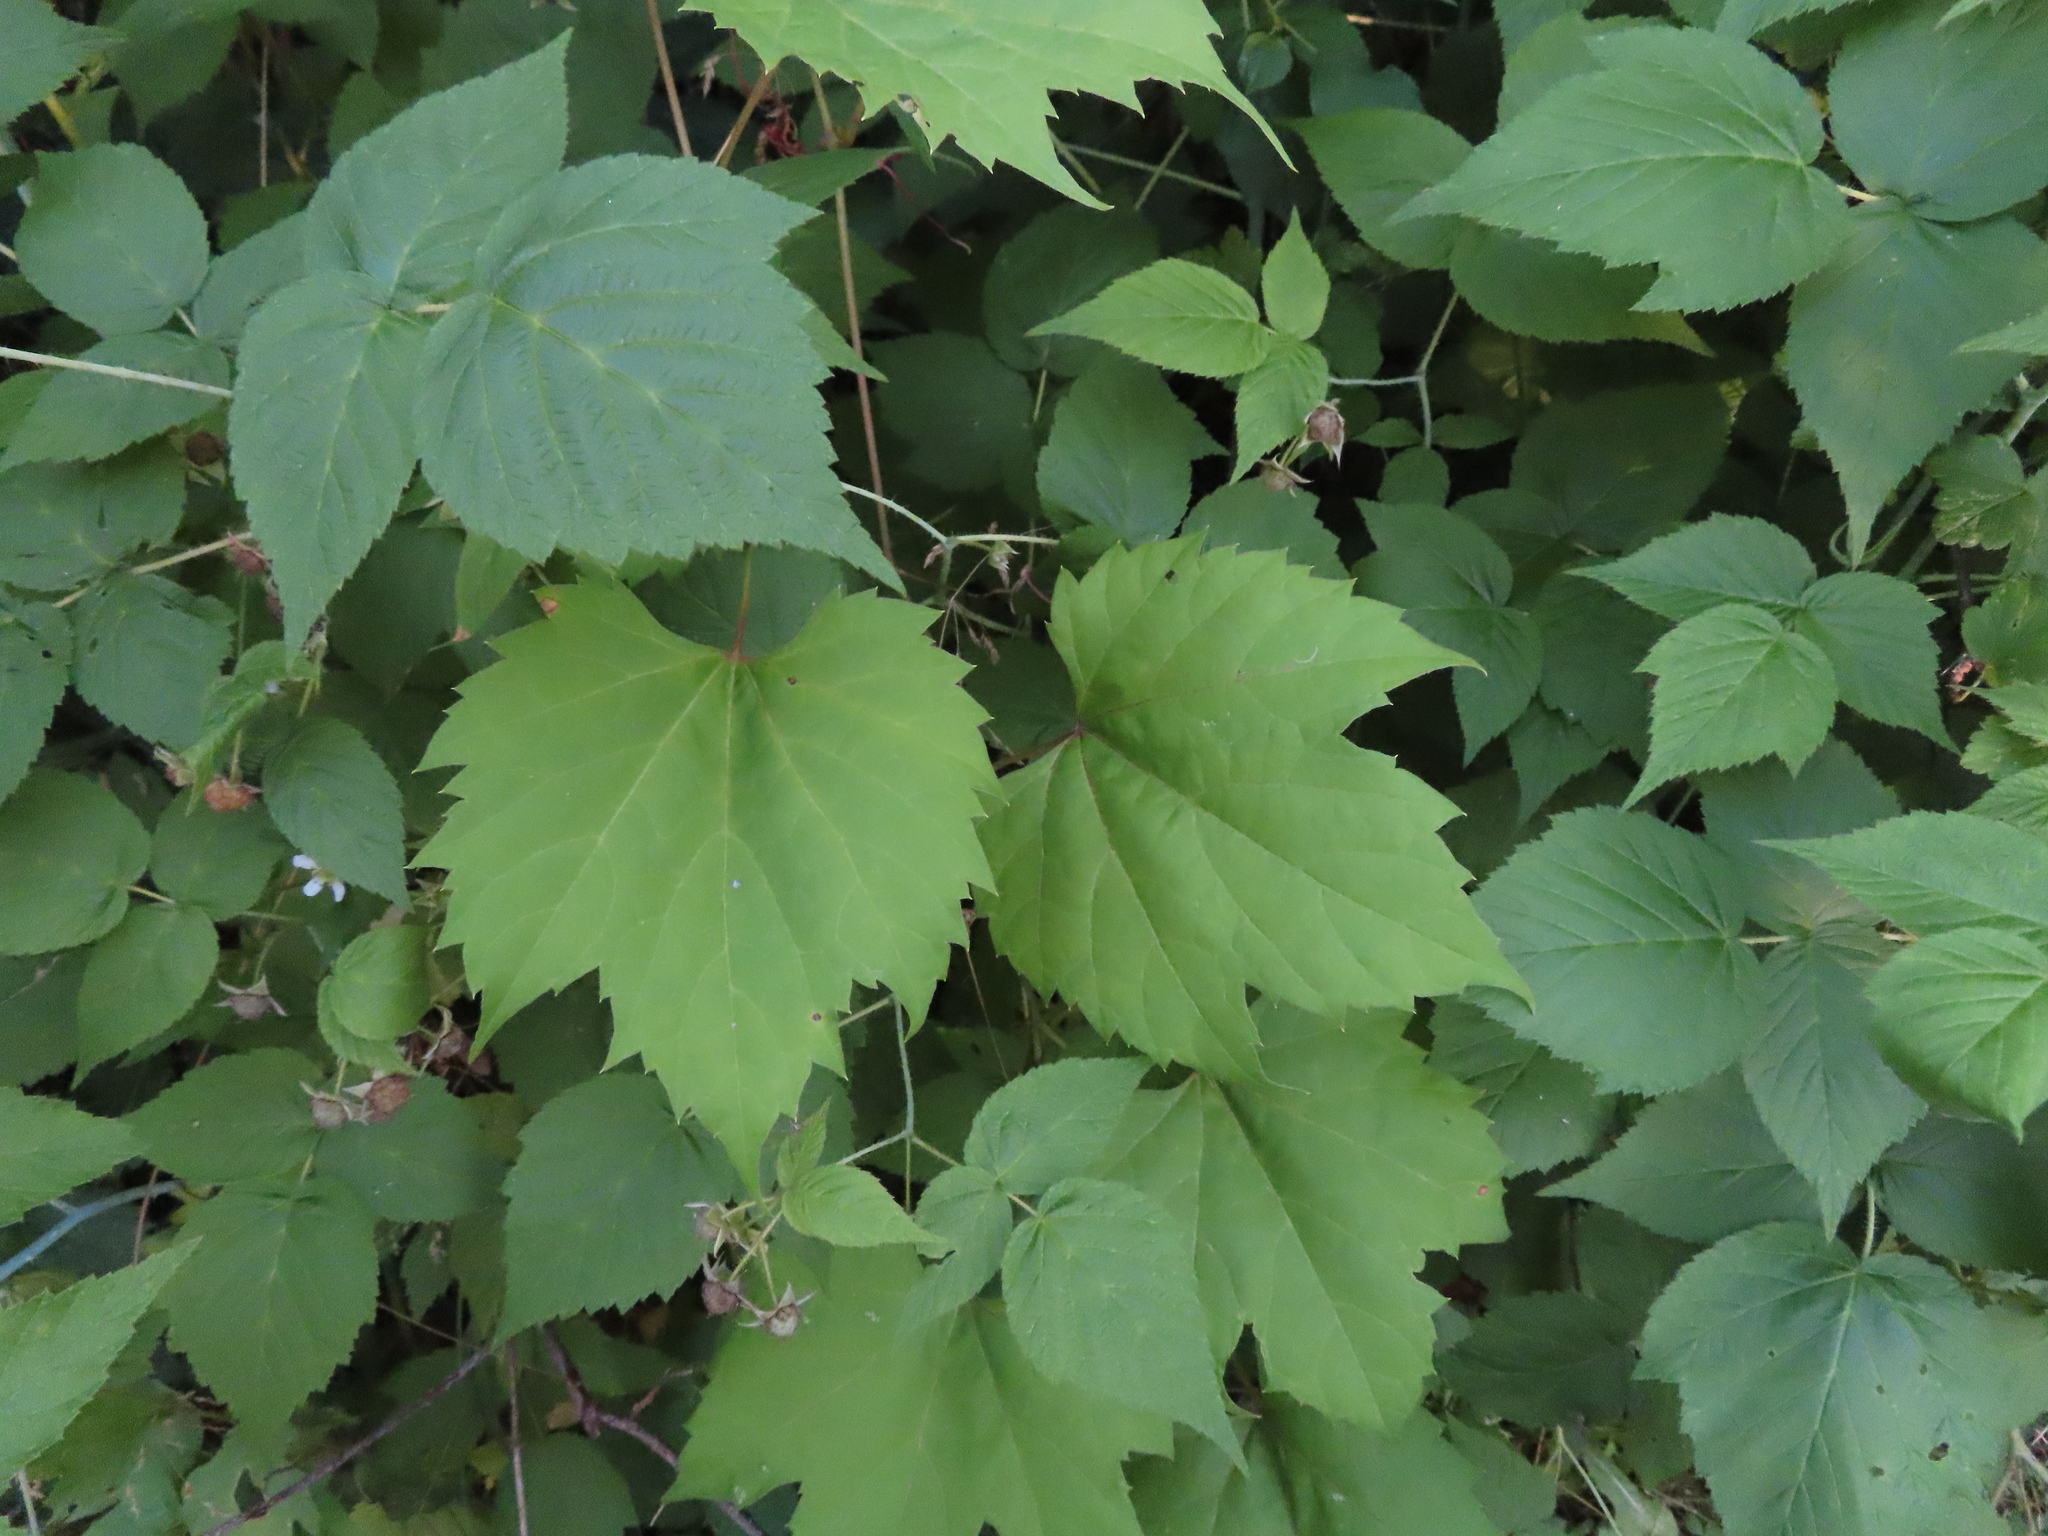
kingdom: Plantae
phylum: Tracheophyta
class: Magnoliopsida
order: Vitales
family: Vitaceae
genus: Vitis
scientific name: Vitis riparia
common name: Frost grape
